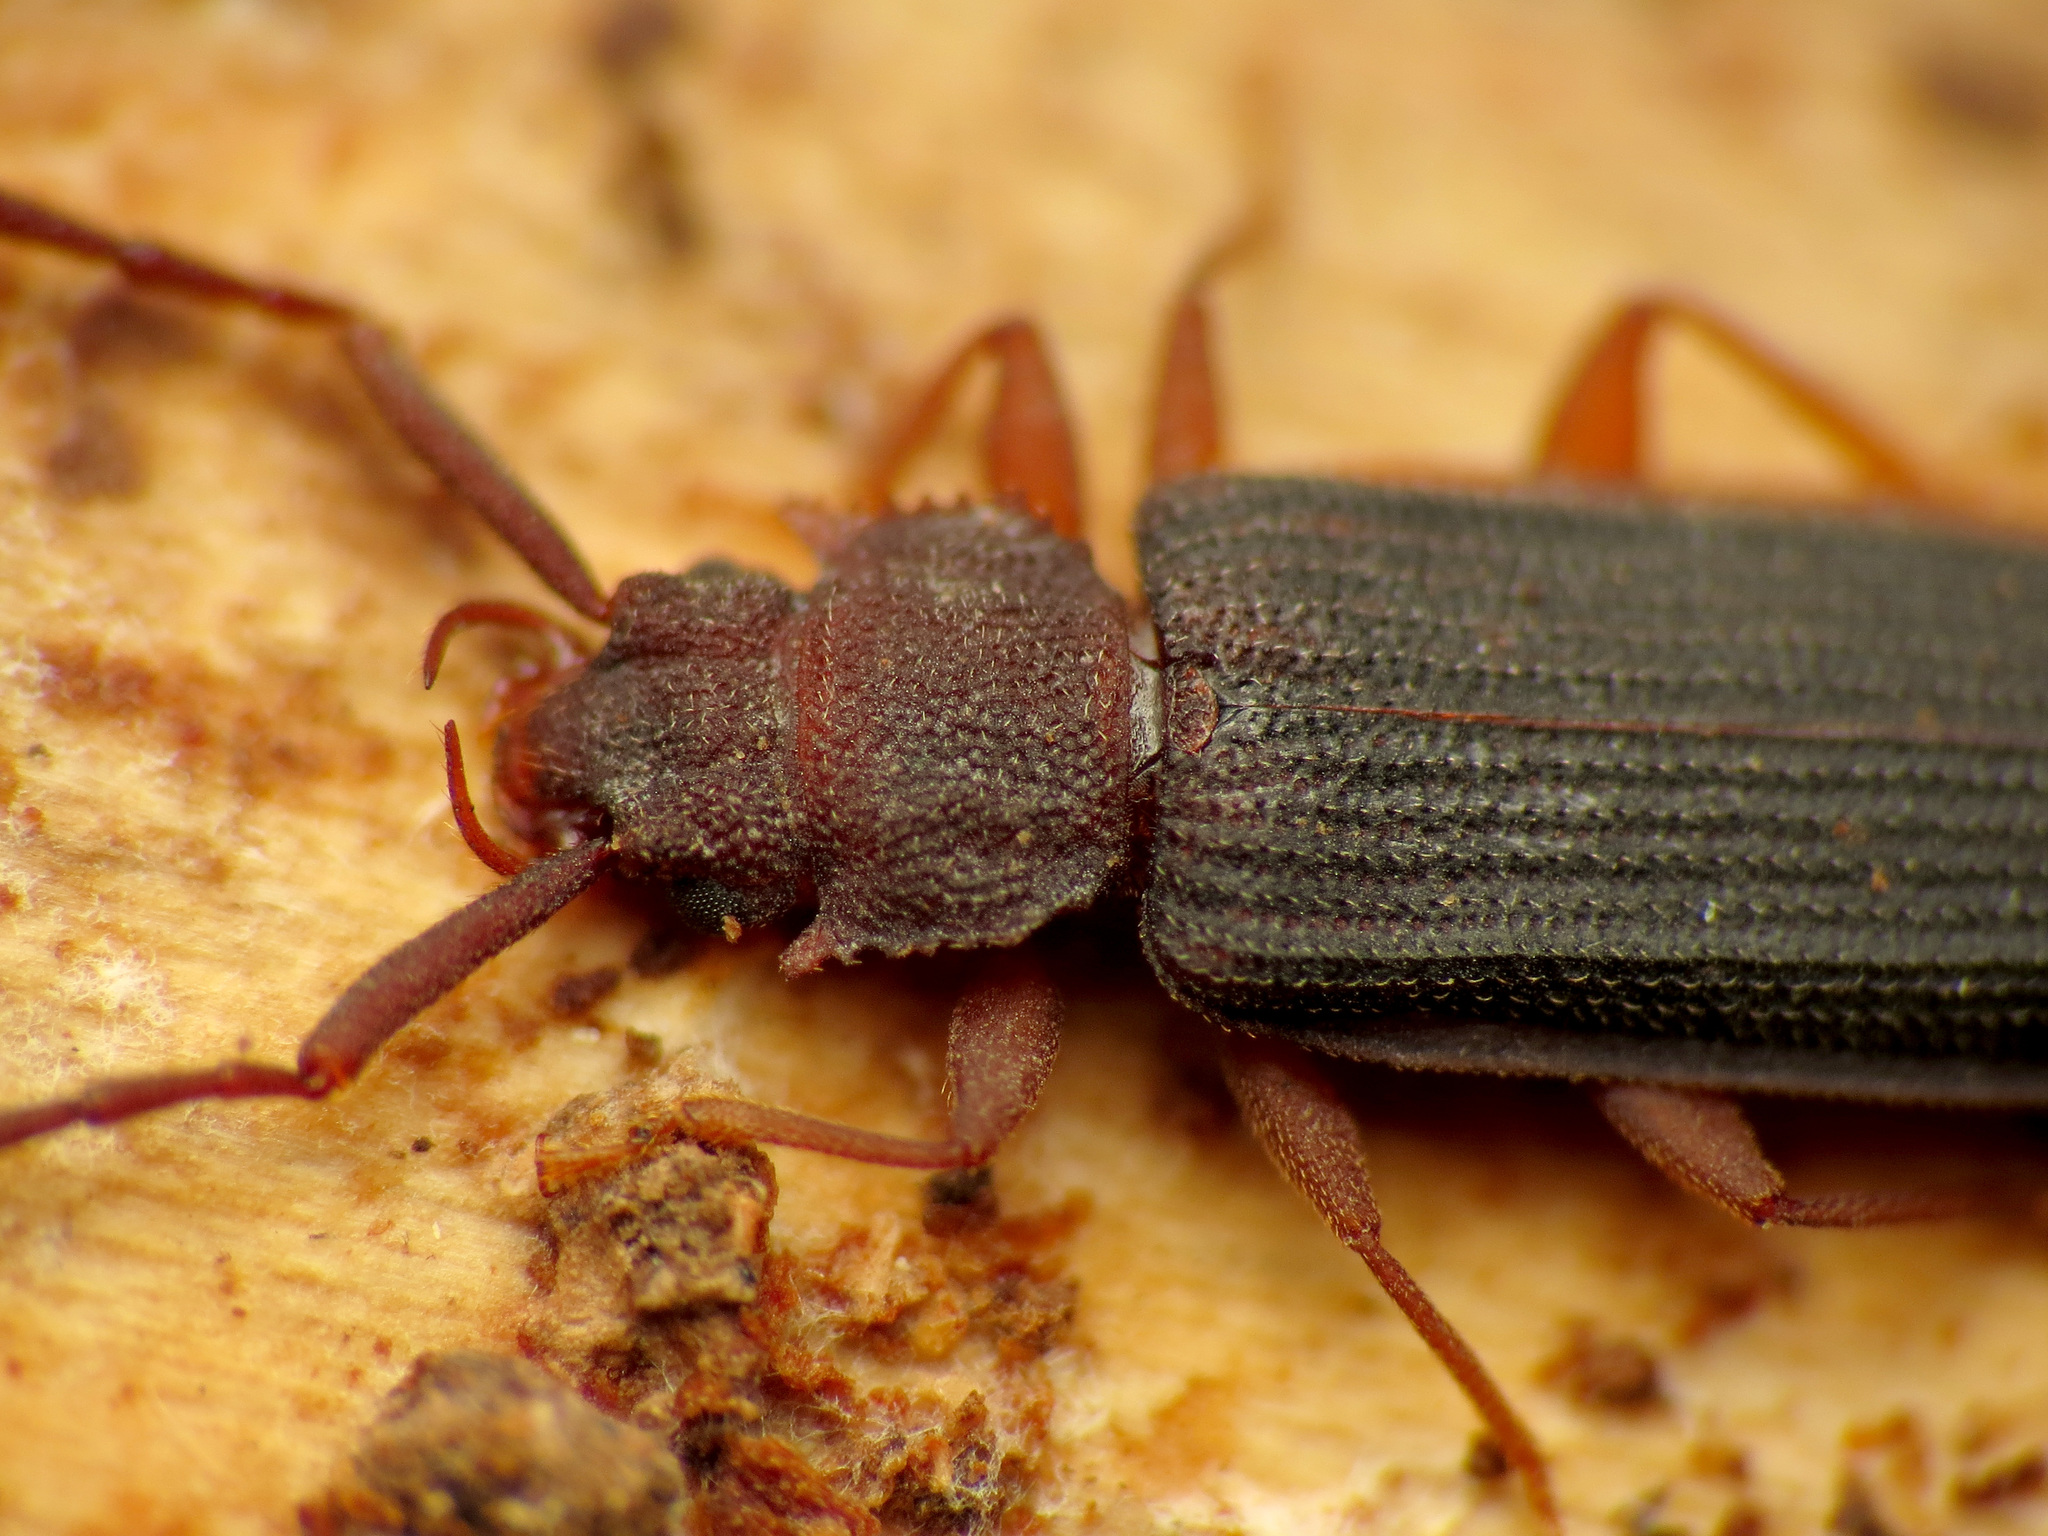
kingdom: Animalia
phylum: Arthropoda
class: Insecta
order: Coleoptera
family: Silvanidae
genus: Uleiota
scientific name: Uleiota dubia
